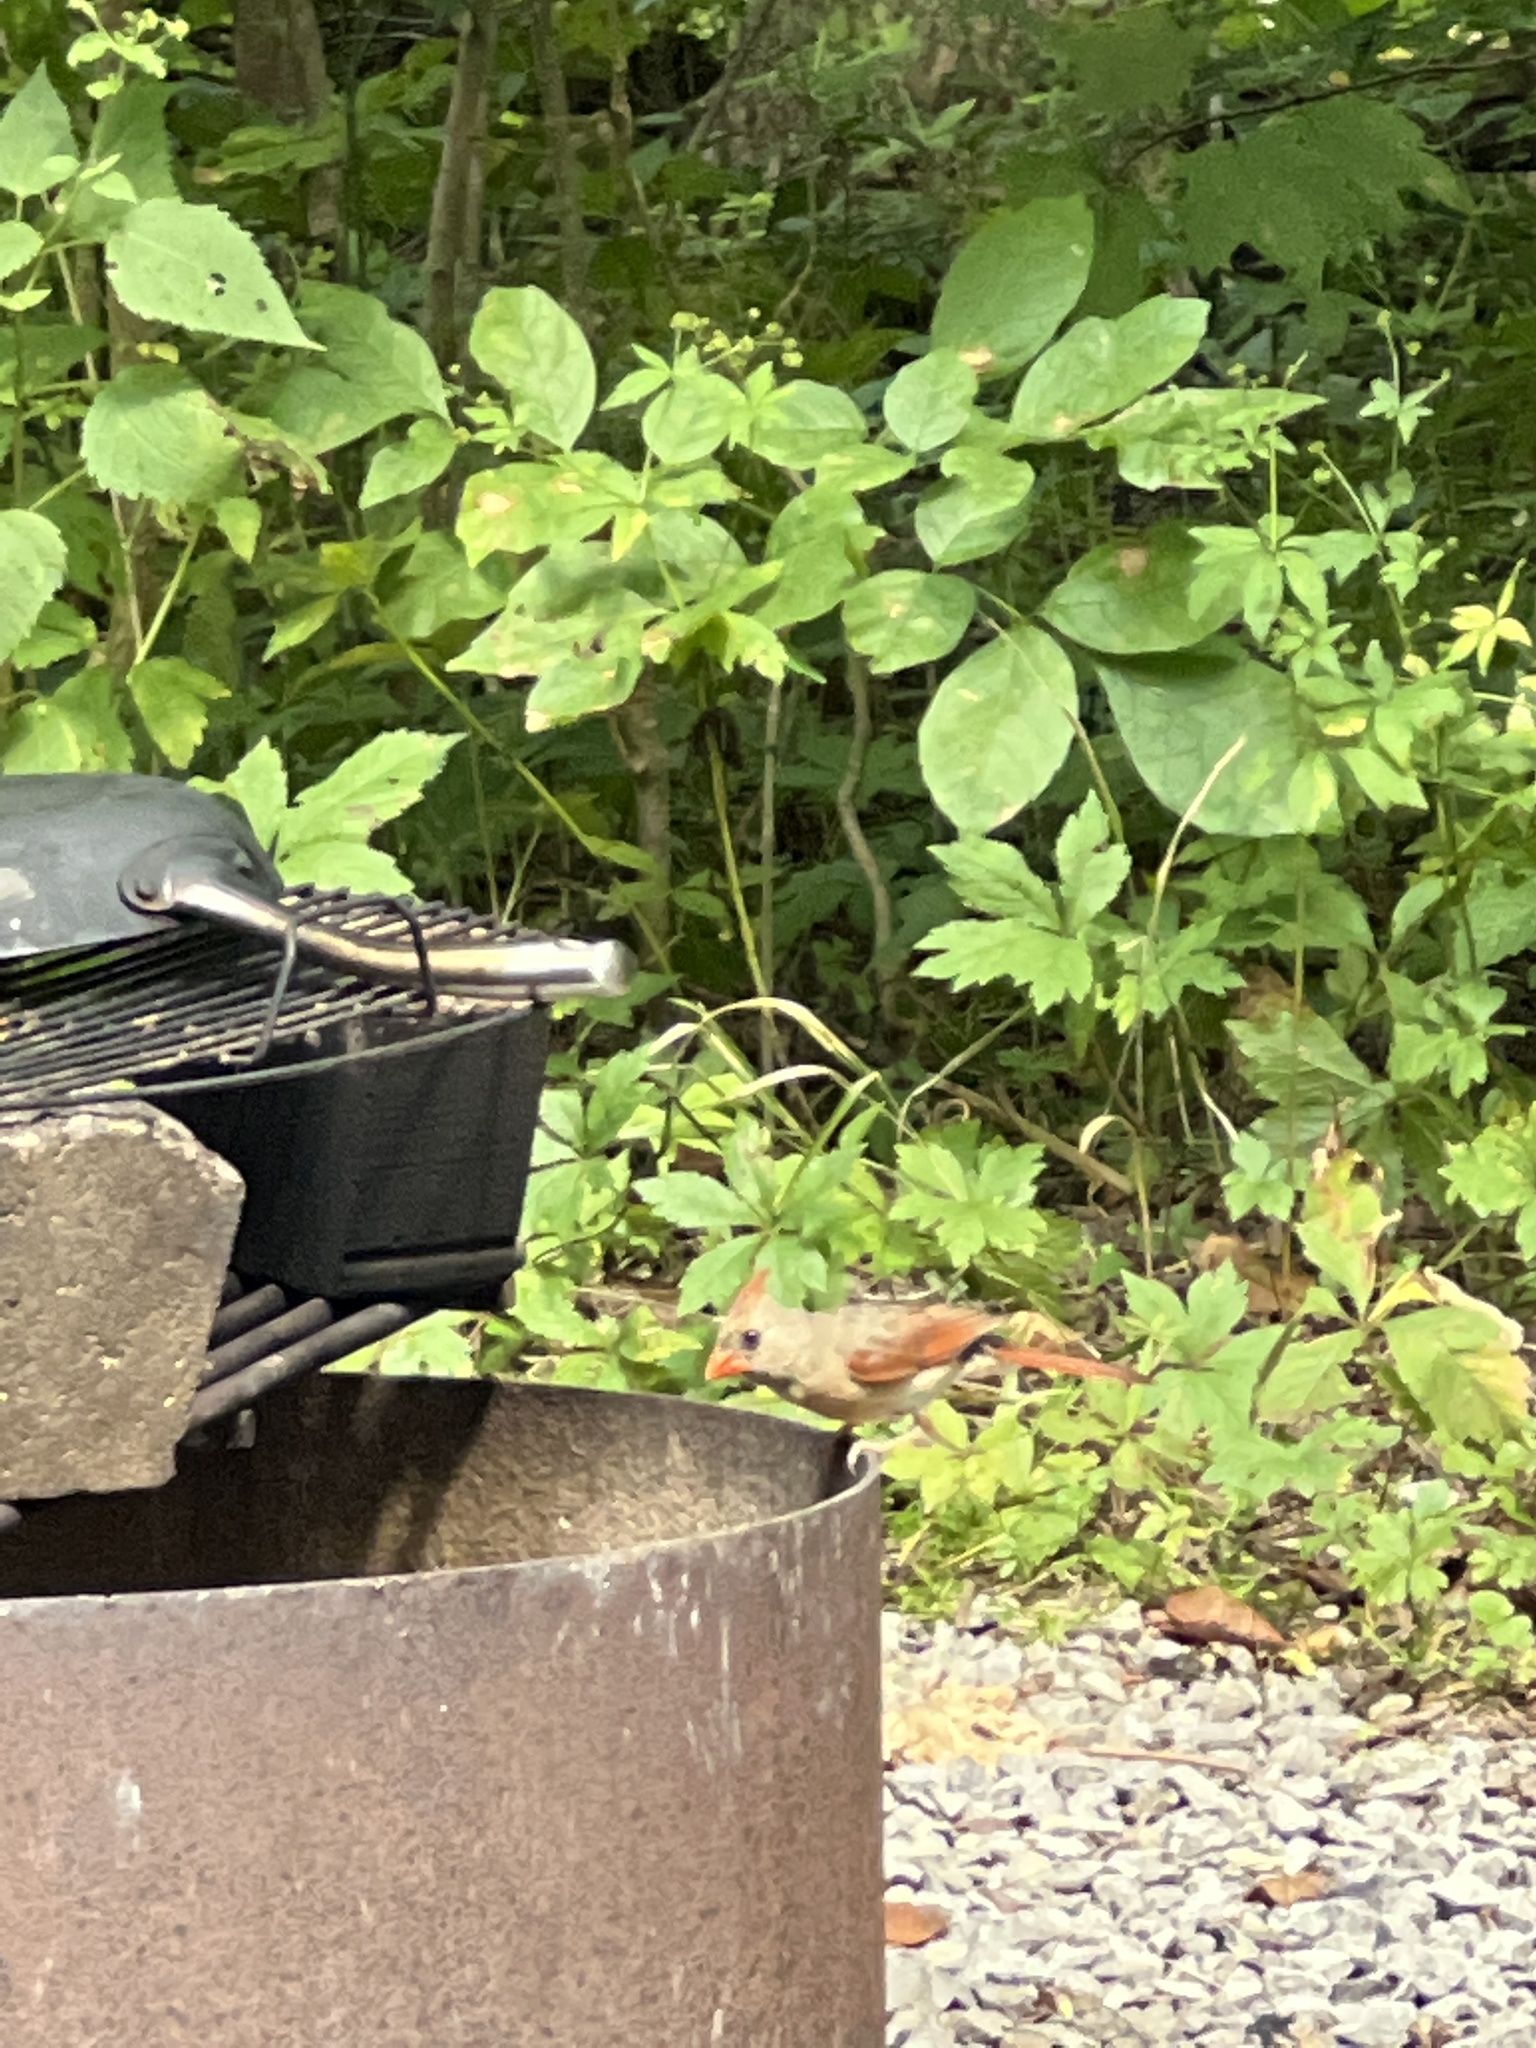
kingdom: Animalia
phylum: Chordata
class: Aves
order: Passeriformes
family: Cardinalidae
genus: Cardinalis
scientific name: Cardinalis cardinalis
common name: Northern cardinal
